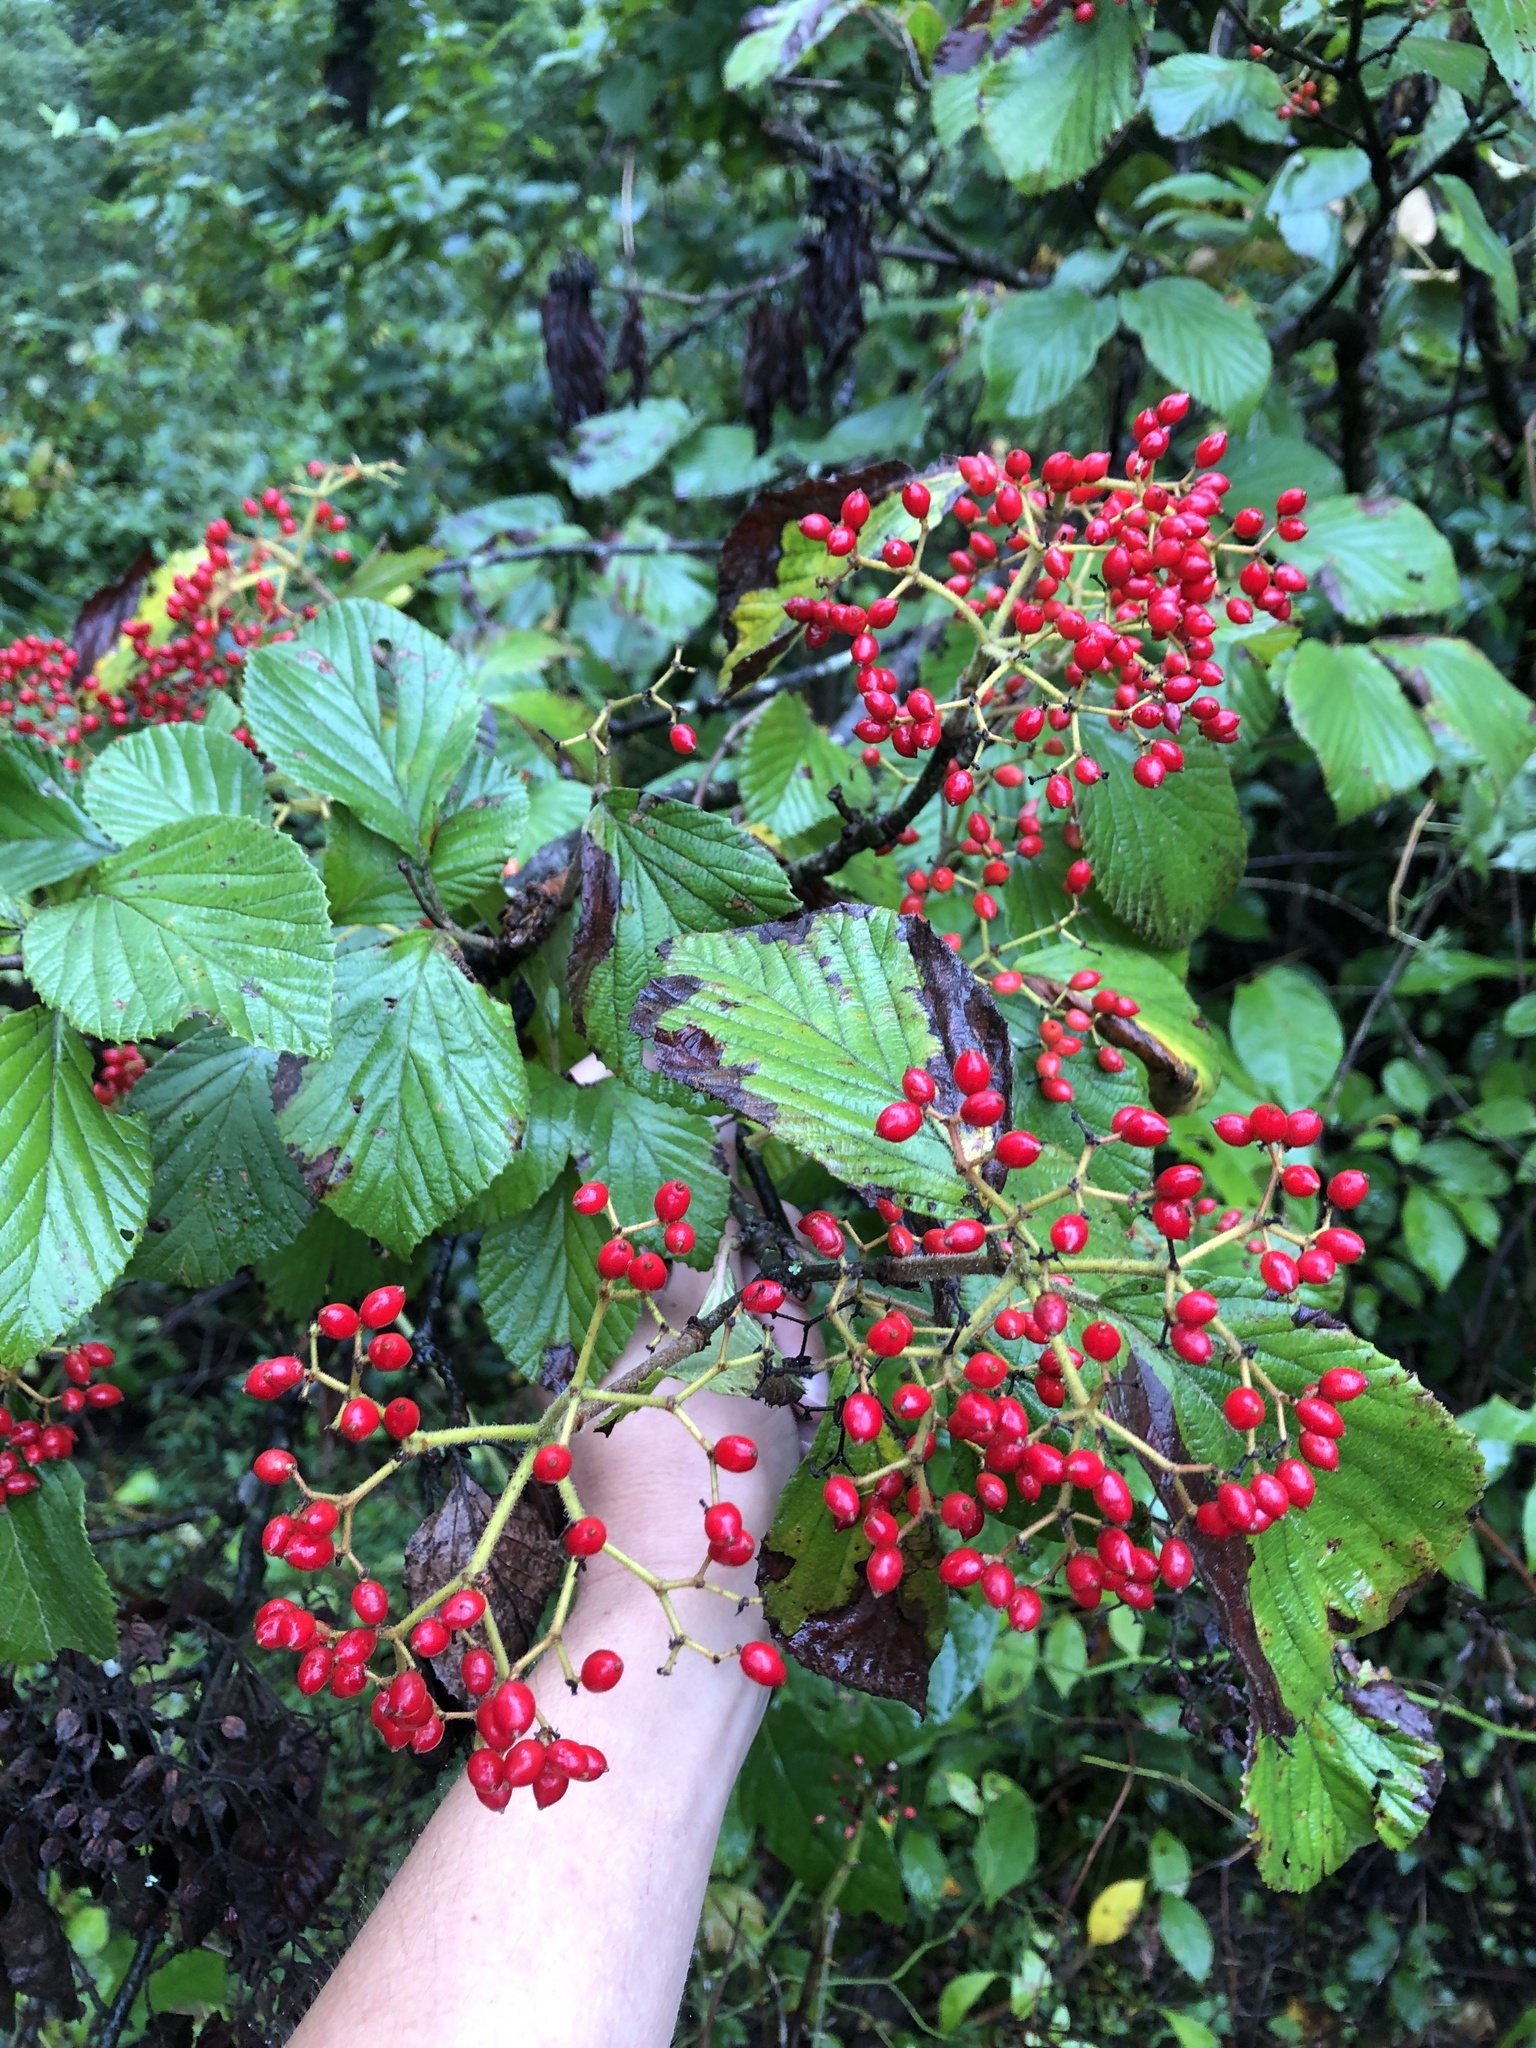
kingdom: Plantae
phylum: Tracheophyta
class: Magnoliopsida
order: Dipsacales
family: Viburnaceae
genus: Viburnum
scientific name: Viburnum dilatatum
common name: Linden arrowwood
